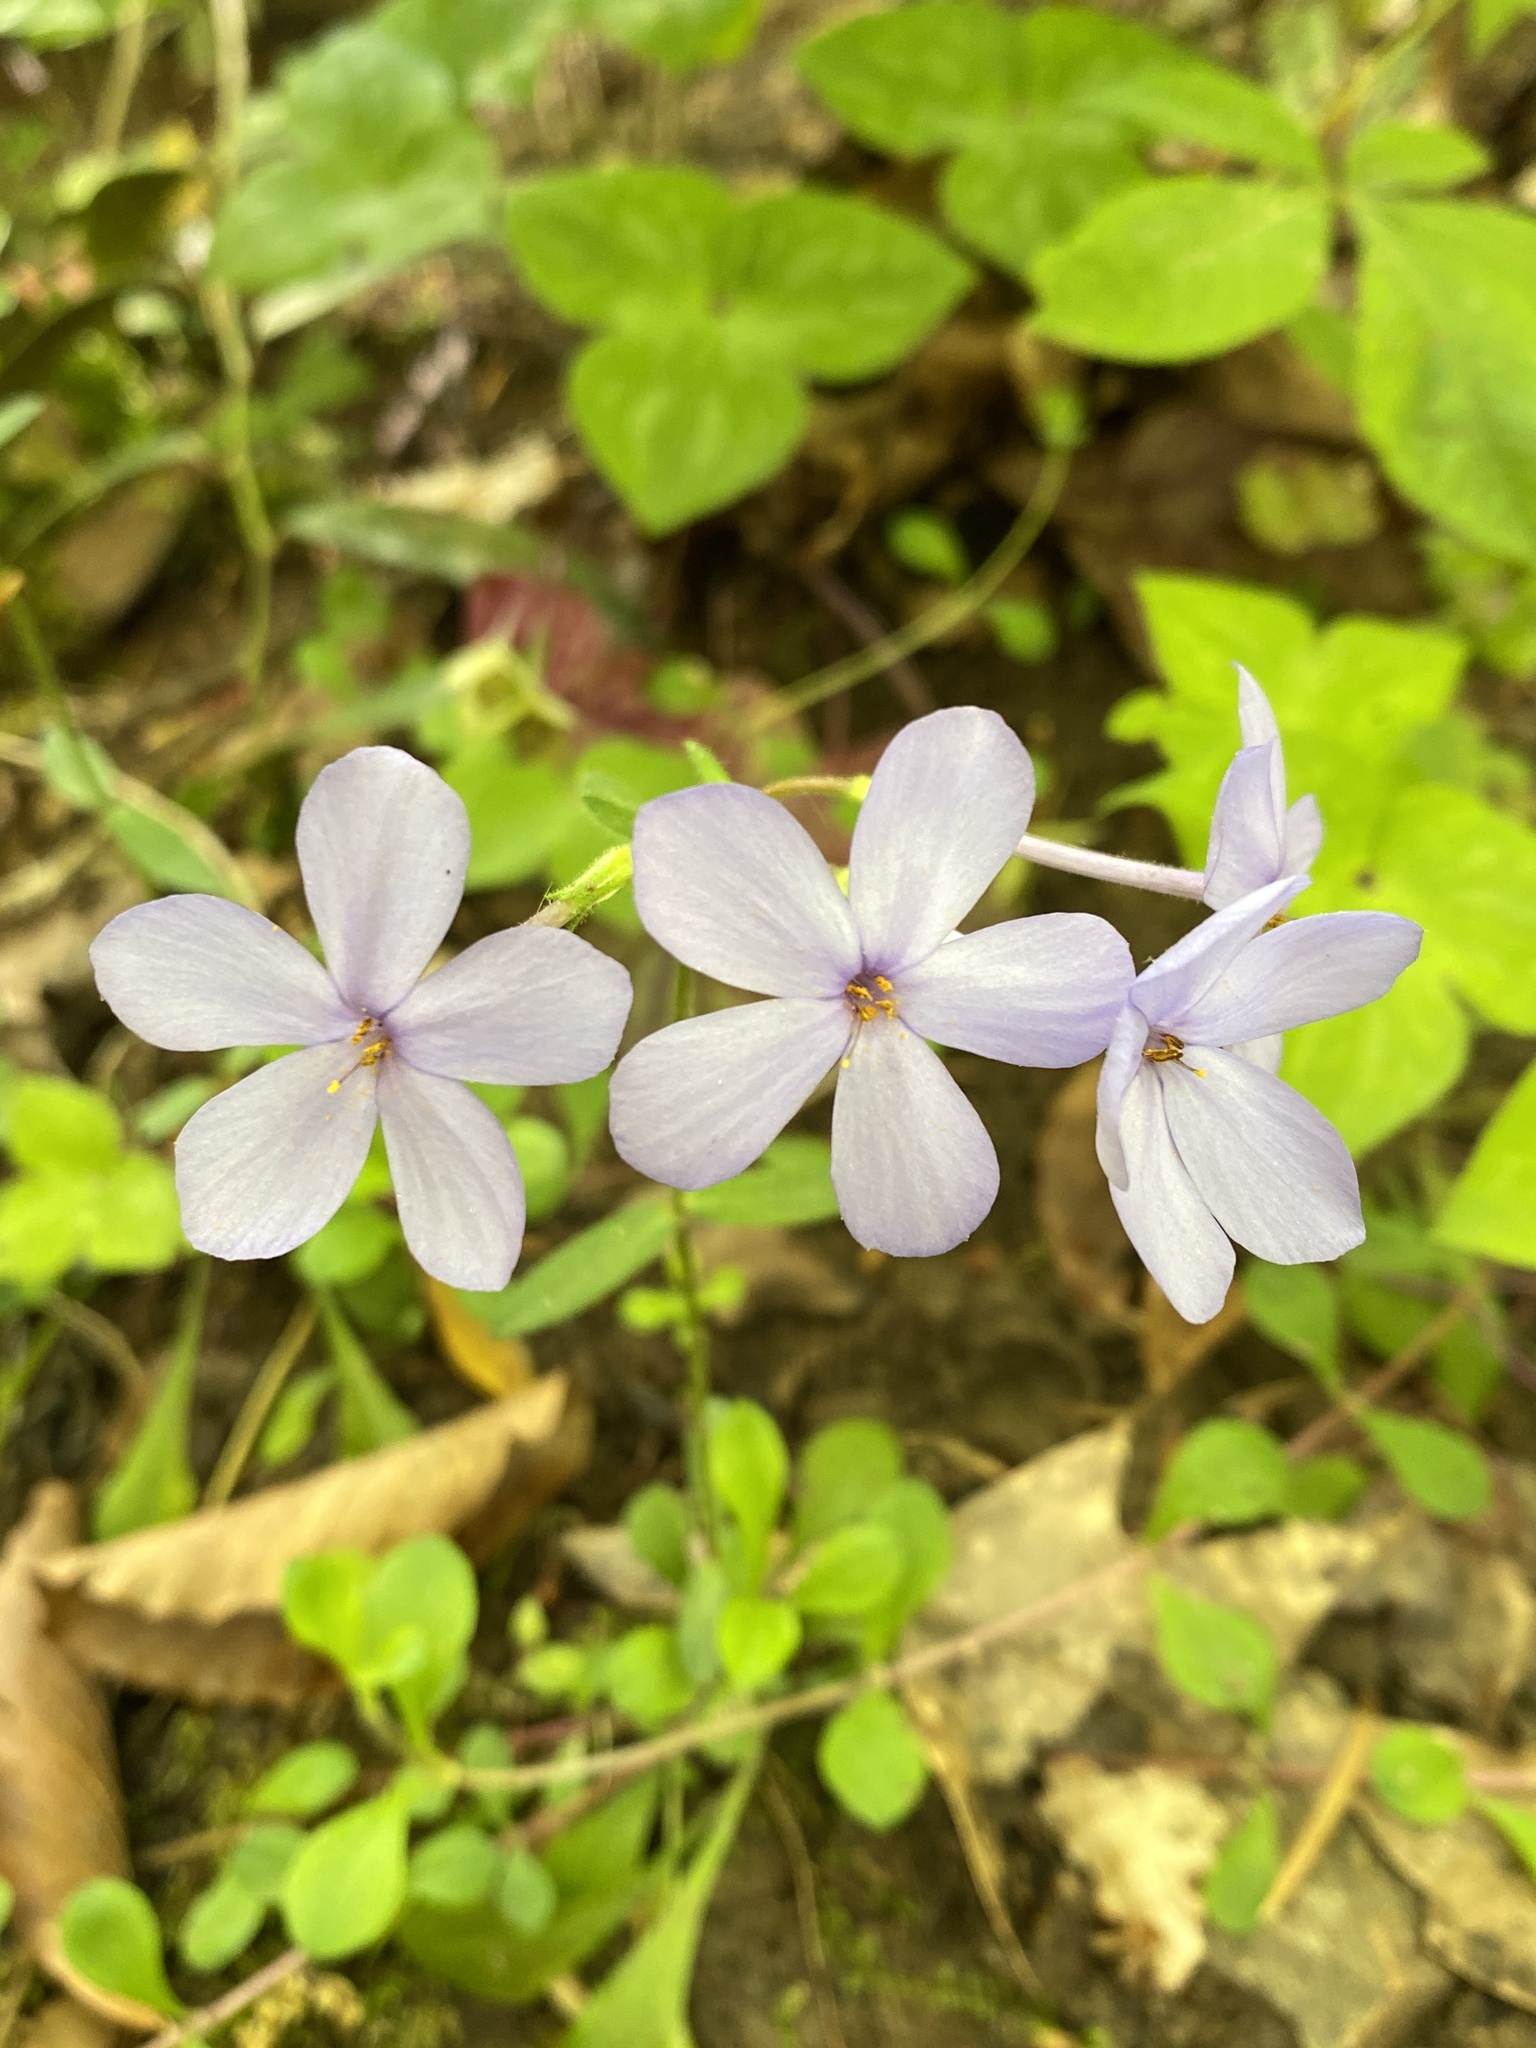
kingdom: Plantae
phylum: Tracheophyta
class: Magnoliopsida
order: Ericales
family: Polemoniaceae
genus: Phlox
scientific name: Phlox stolonifera
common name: Creeping phlox
